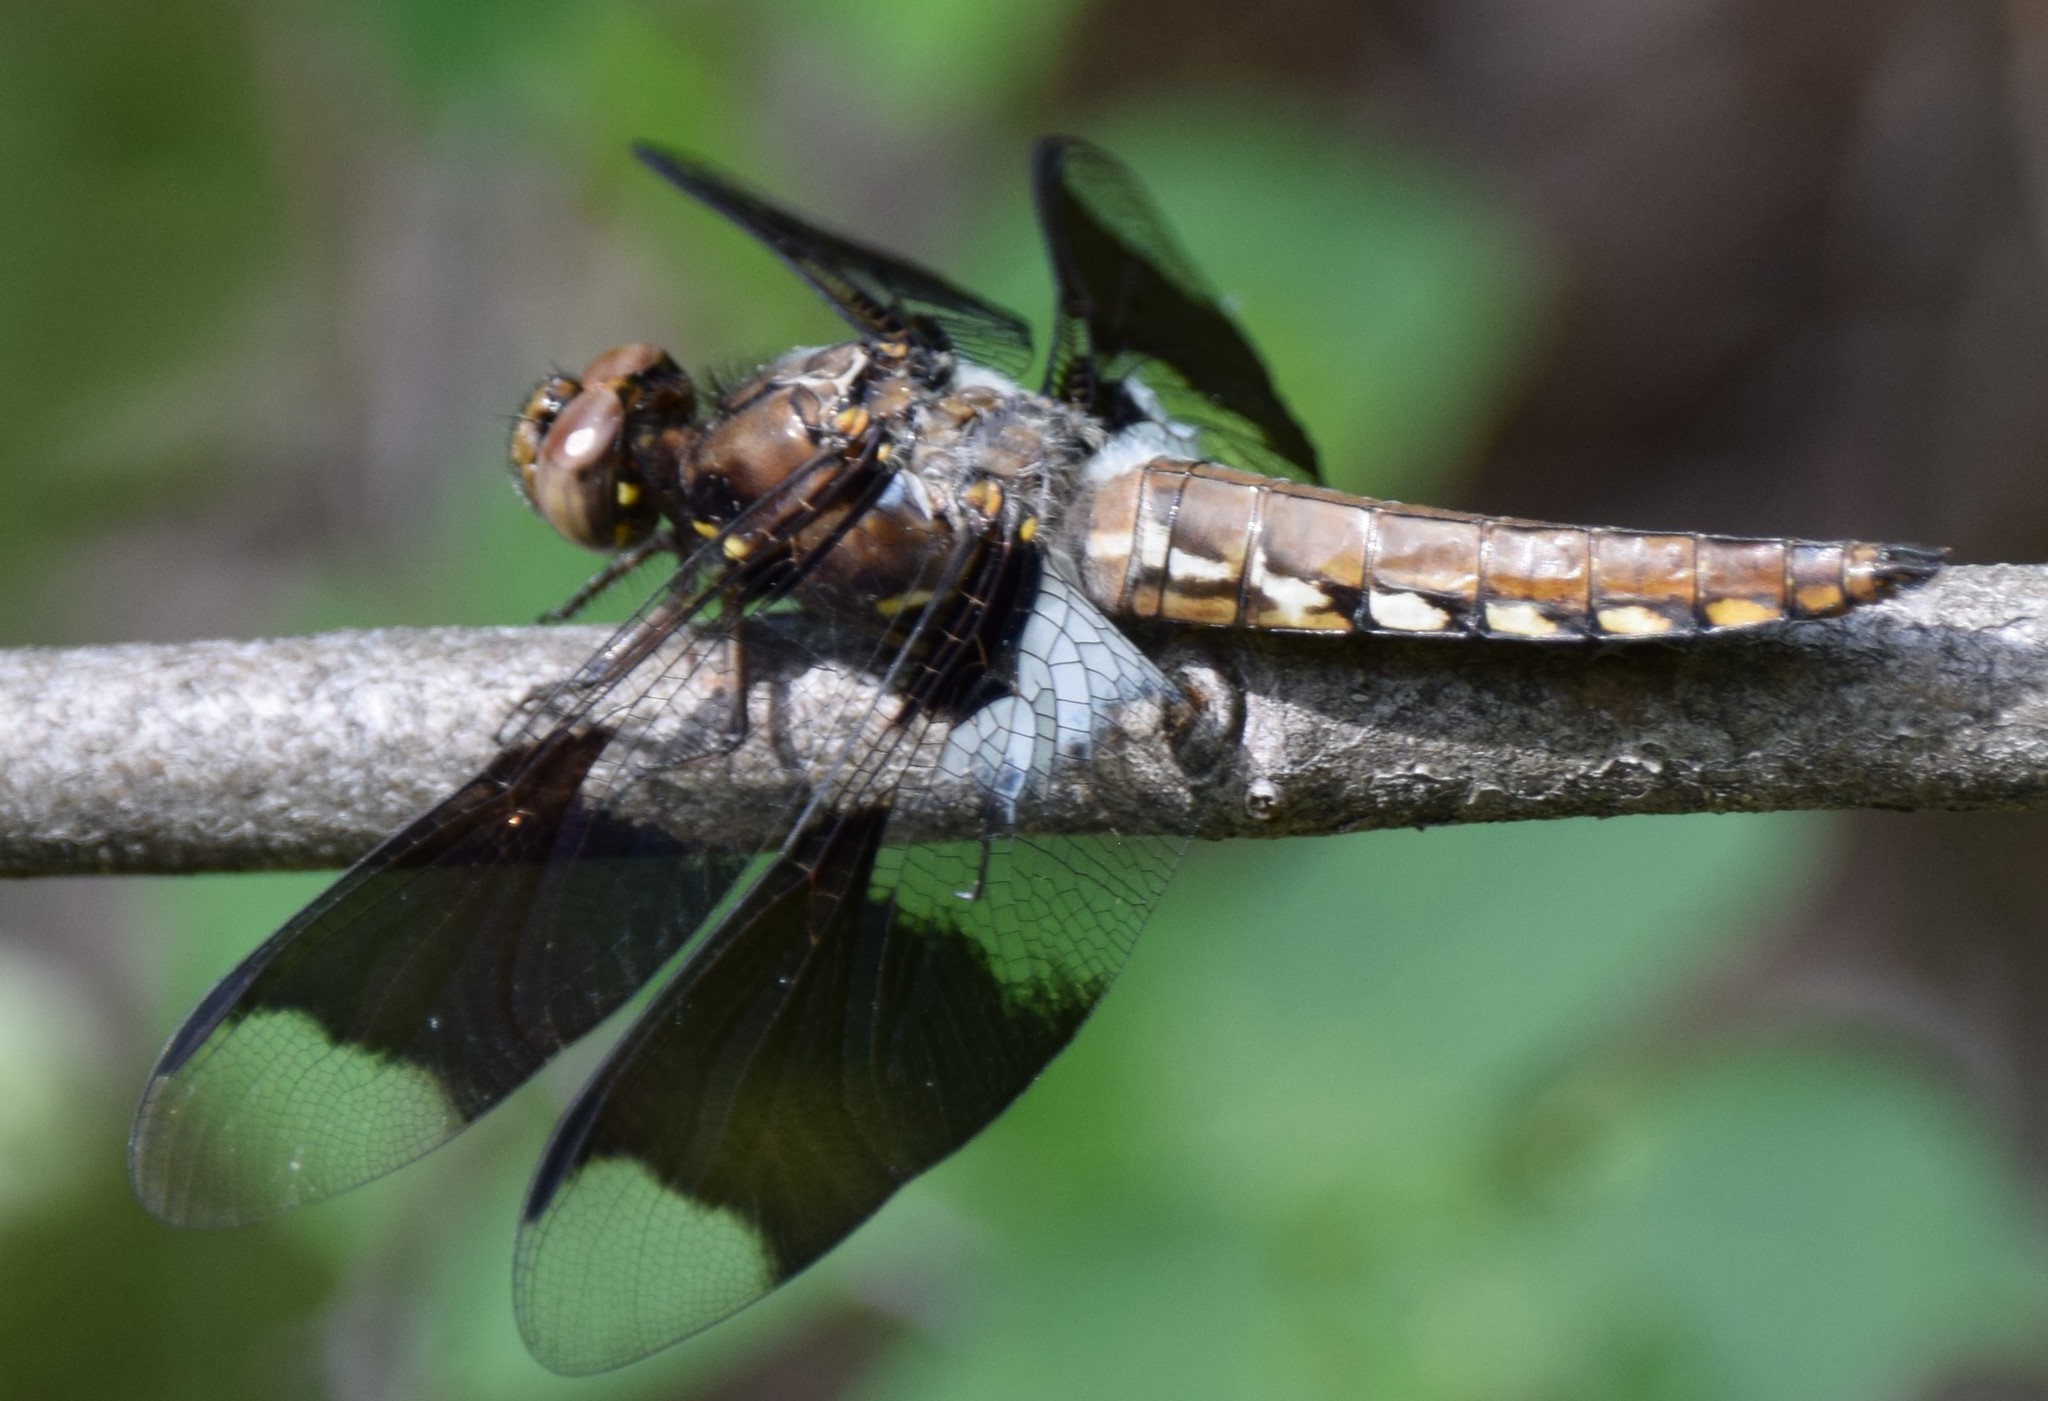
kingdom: Animalia
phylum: Arthropoda
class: Insecta
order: Odonata
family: Libellulidae
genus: Plathemis
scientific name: Plathemis lydia
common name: Common whitetail
